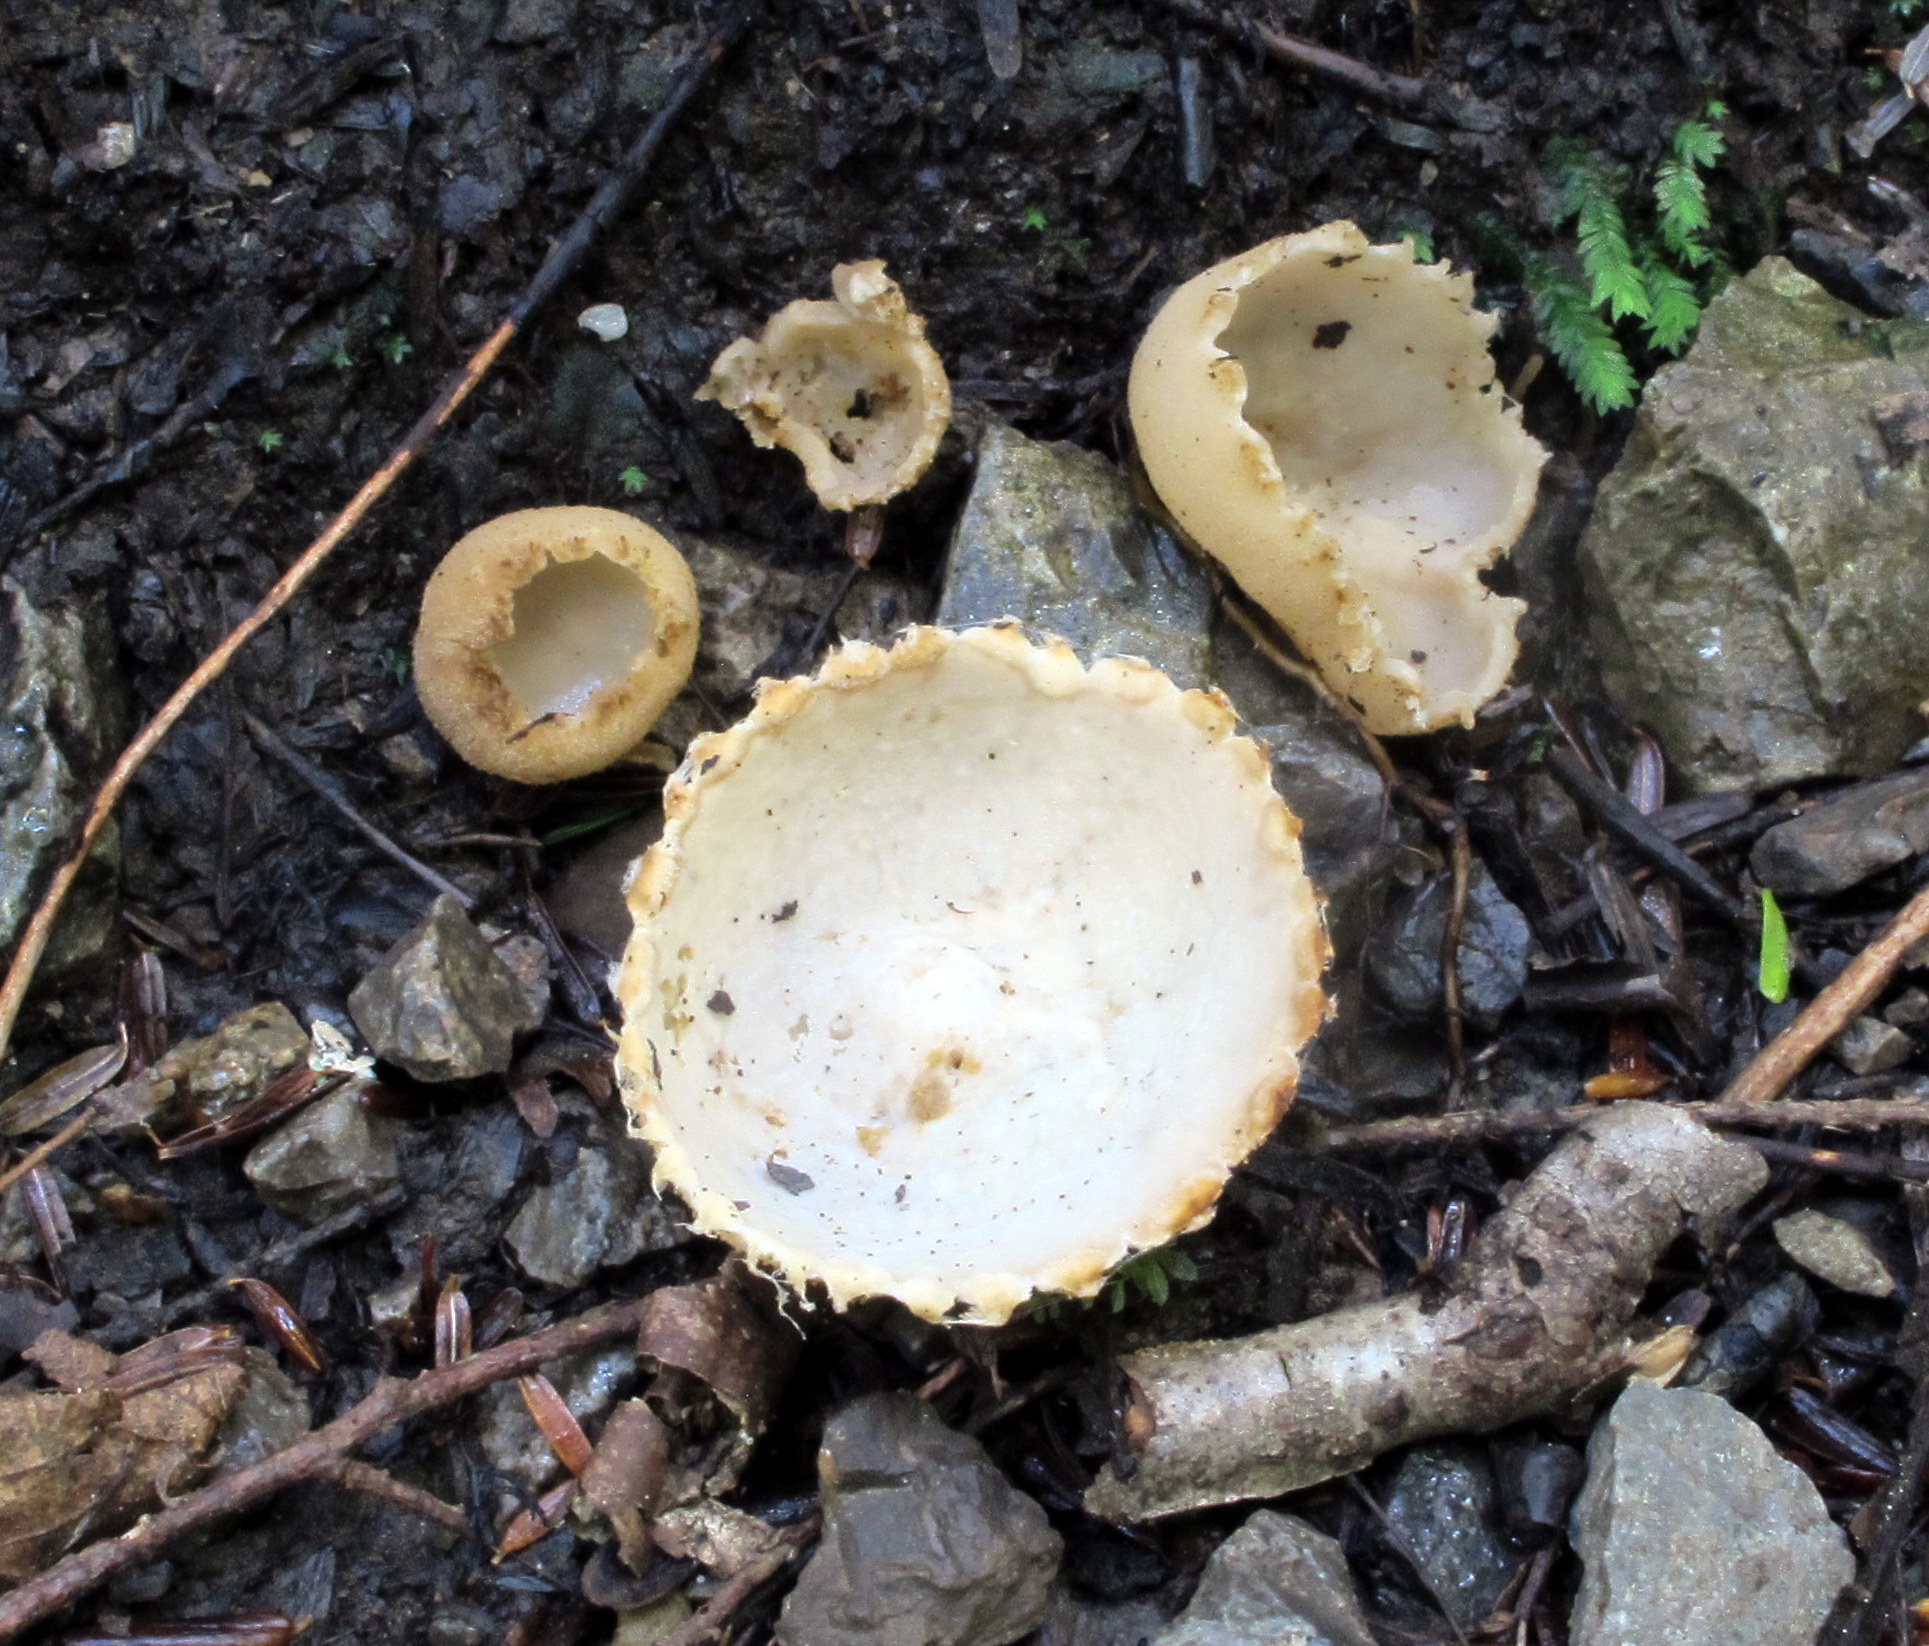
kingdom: Fungi
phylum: Ascomycota
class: Pezizomycetes
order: Pezizales
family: Tarzettaceae
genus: Tarzetta
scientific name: Tarzetta cupularis
